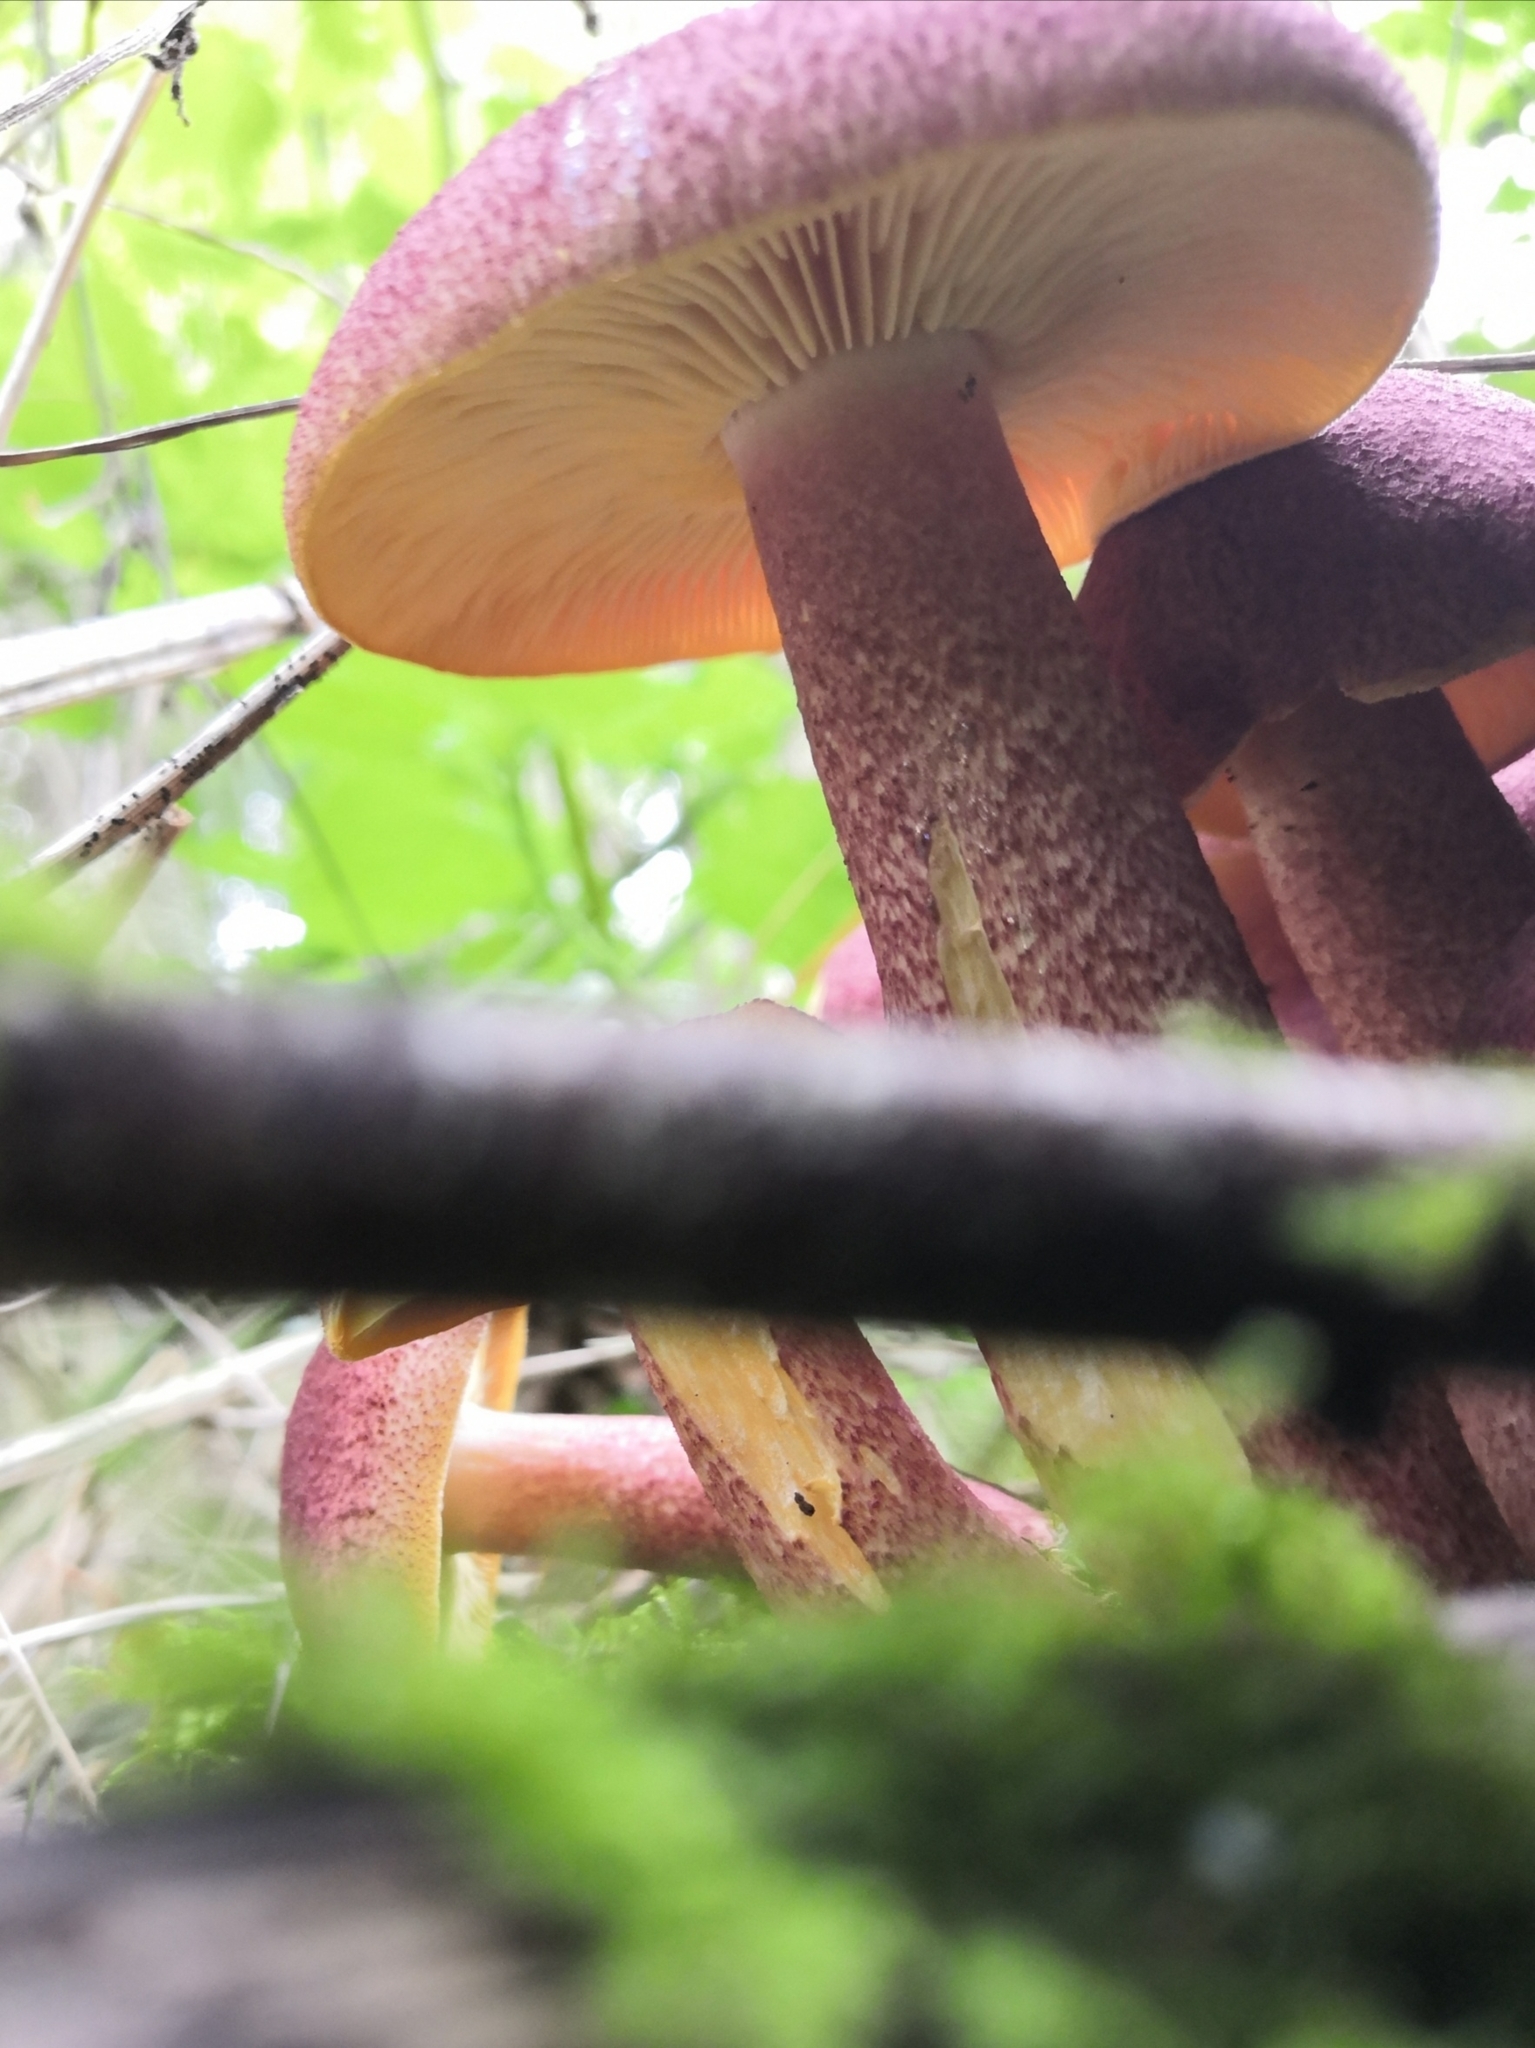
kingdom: Fungi
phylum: Basidiomycota
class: Agaricomycetes
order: Agaricales
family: Tricholomataceae
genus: Tricholomopsis
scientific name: Tricholomopsis rutilans
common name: Plums and custard
